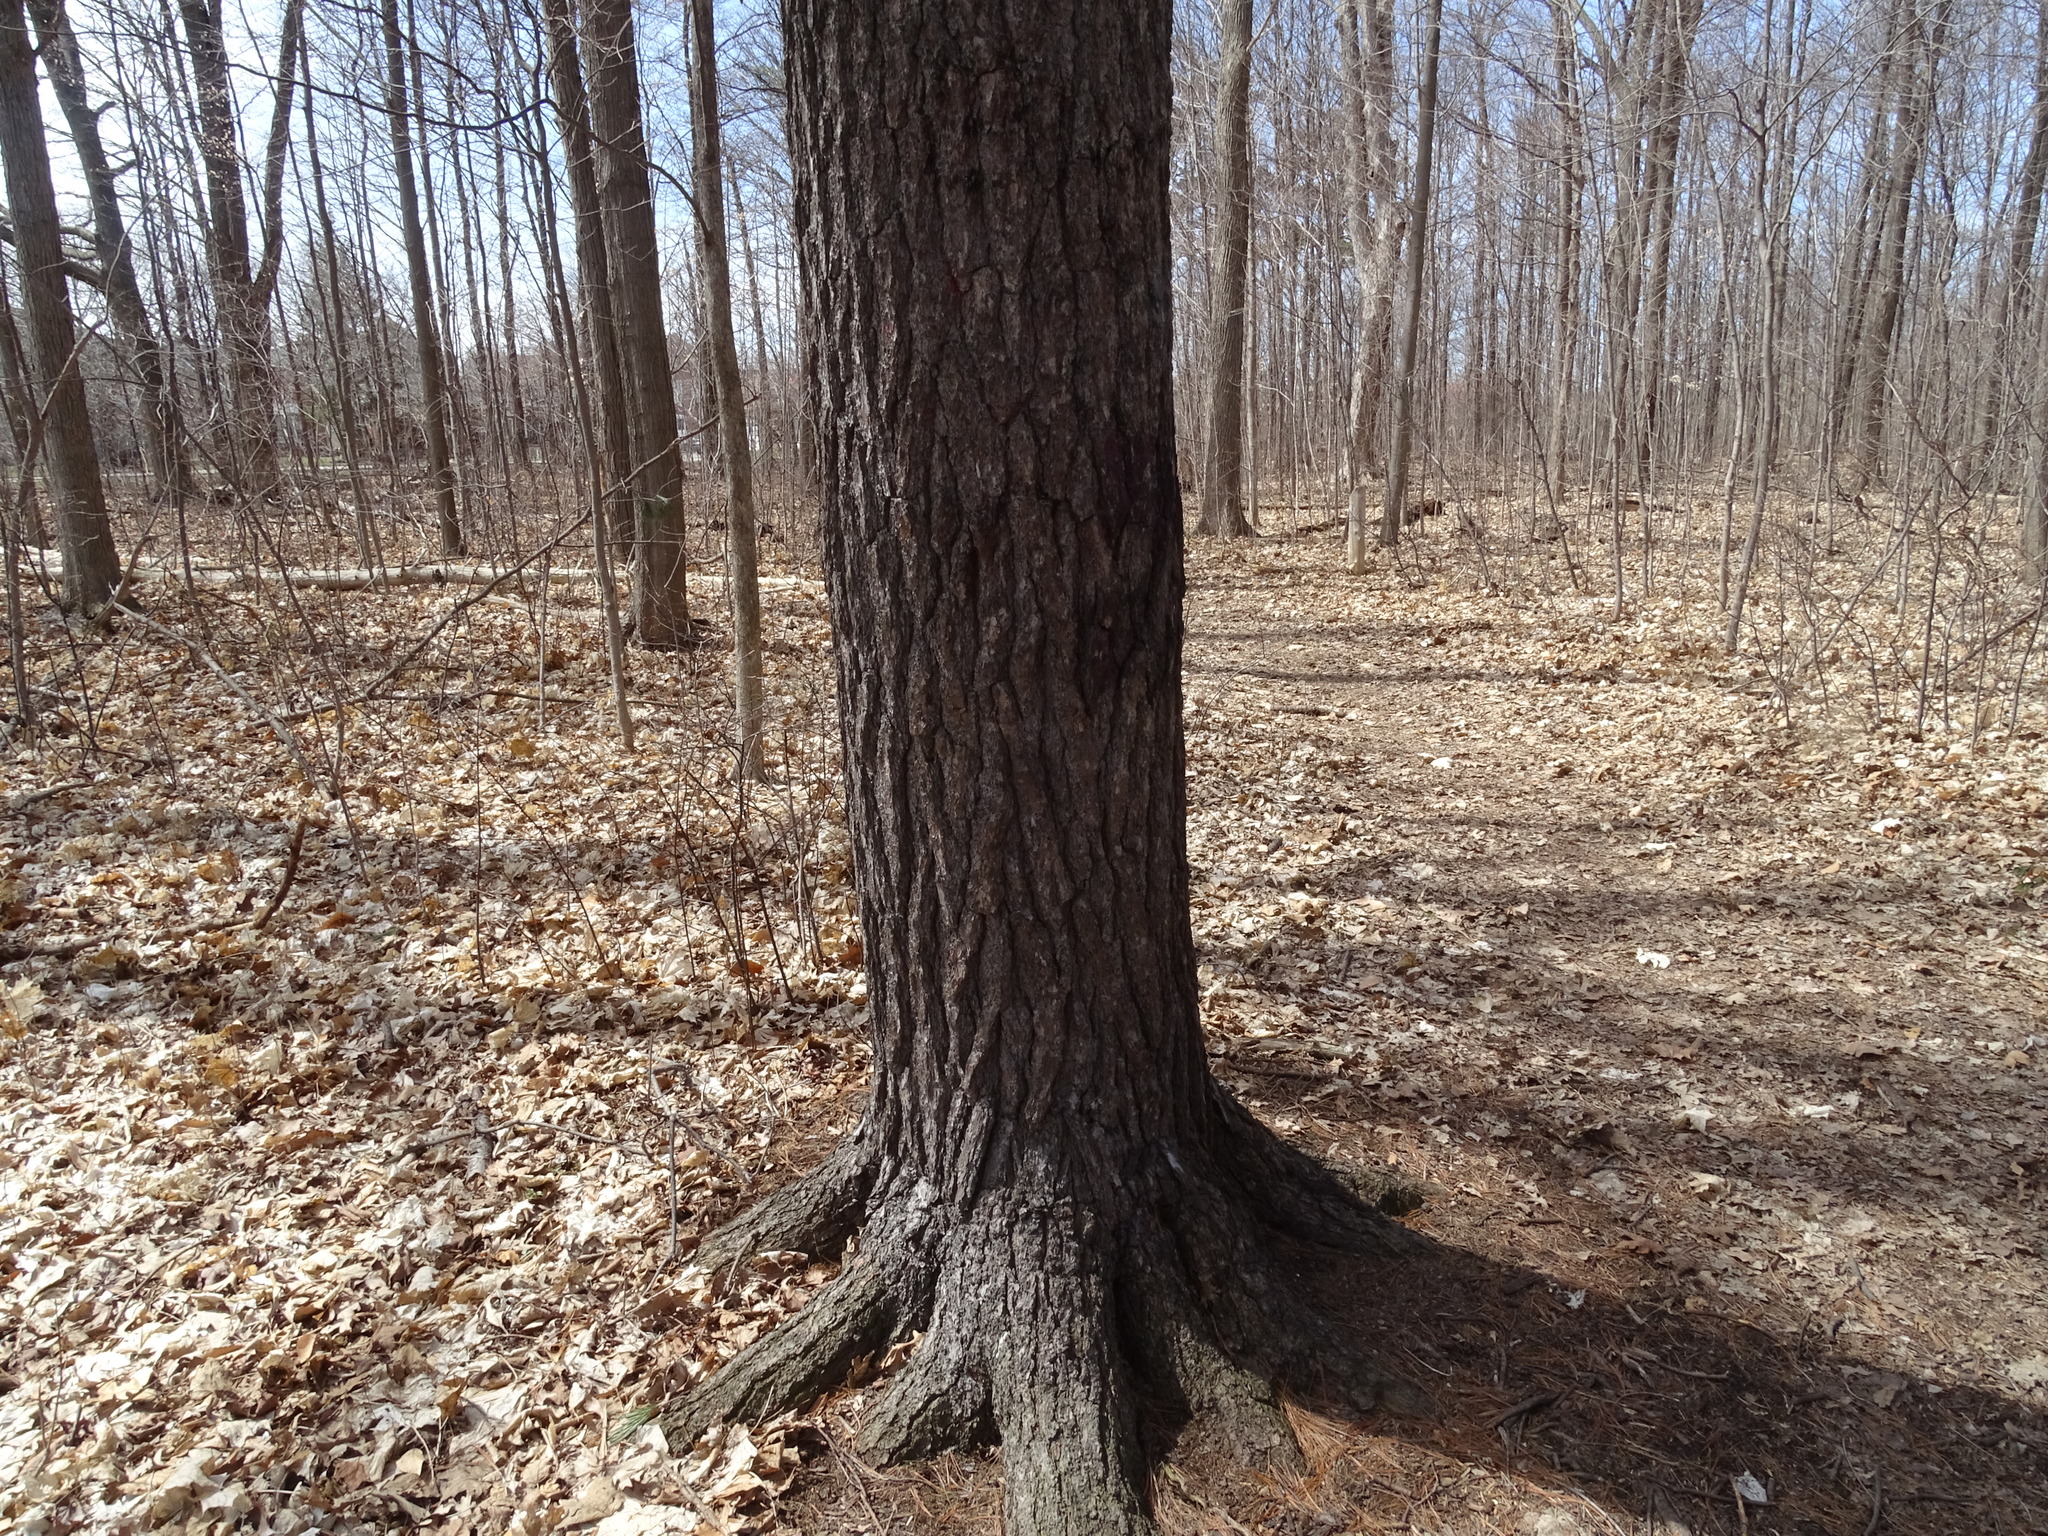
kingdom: Plantae
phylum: Tracheophyta
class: Pinopsida
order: Pinales
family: Pinaceae
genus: Pinus
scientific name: Pinus strobus
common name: Weymouth pine
